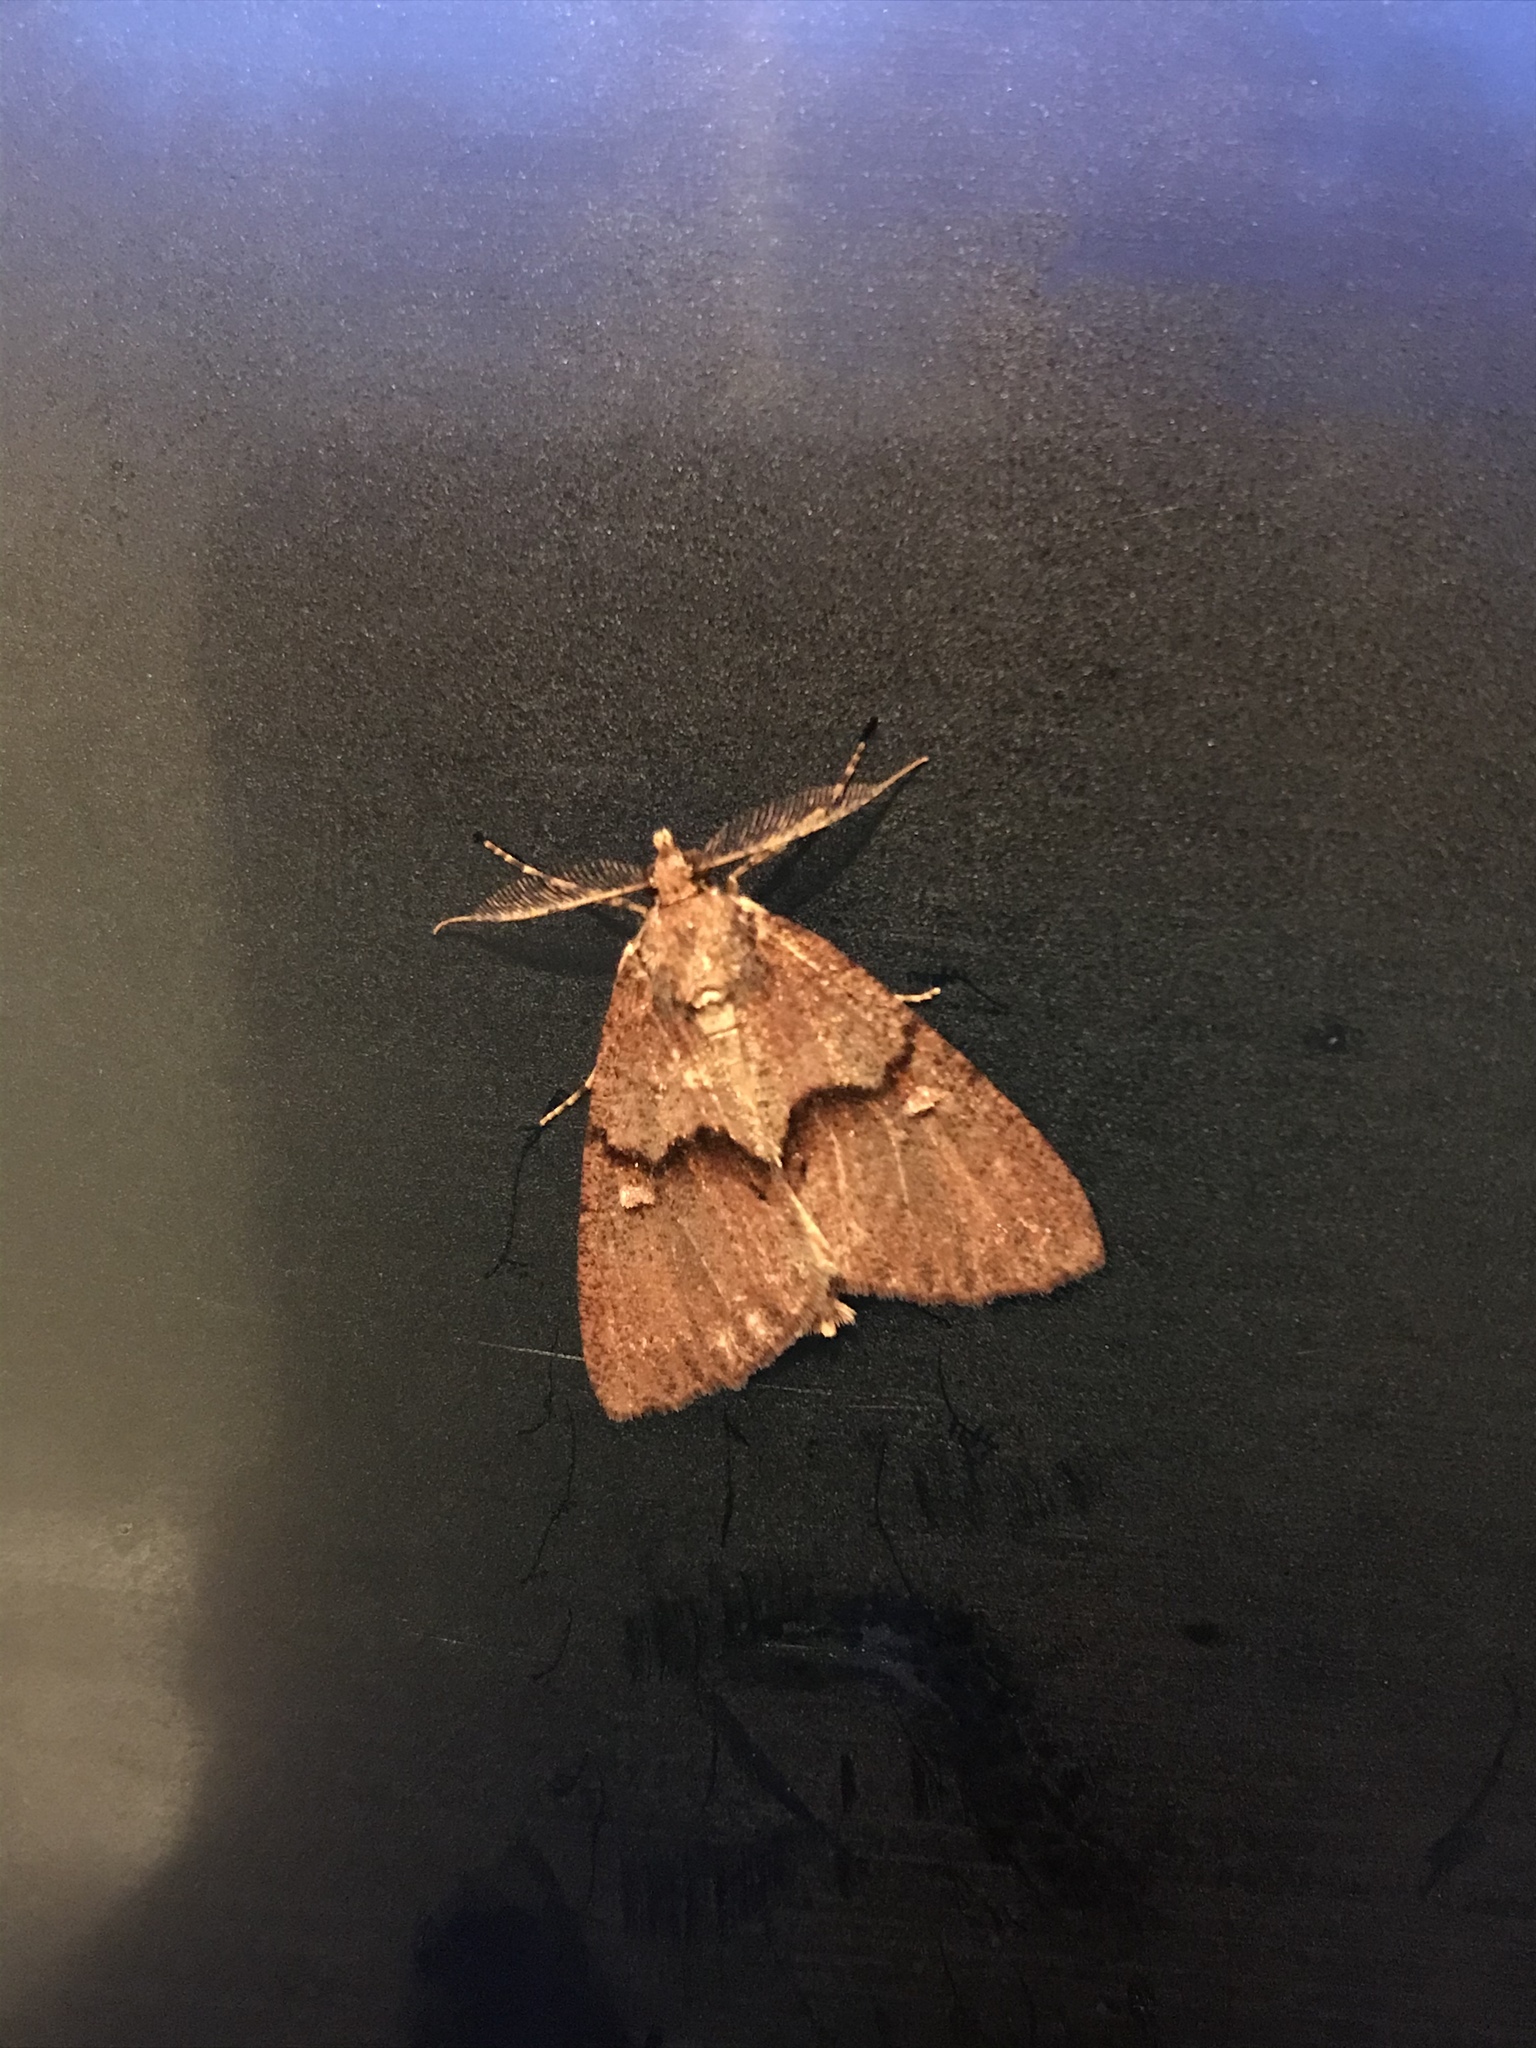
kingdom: Animalia
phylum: Arthropoda
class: Insecta
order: Lepidoptera
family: Geometridae
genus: Pseudocoremia
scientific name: Pseudocoremia suavis
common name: Common forest looper
